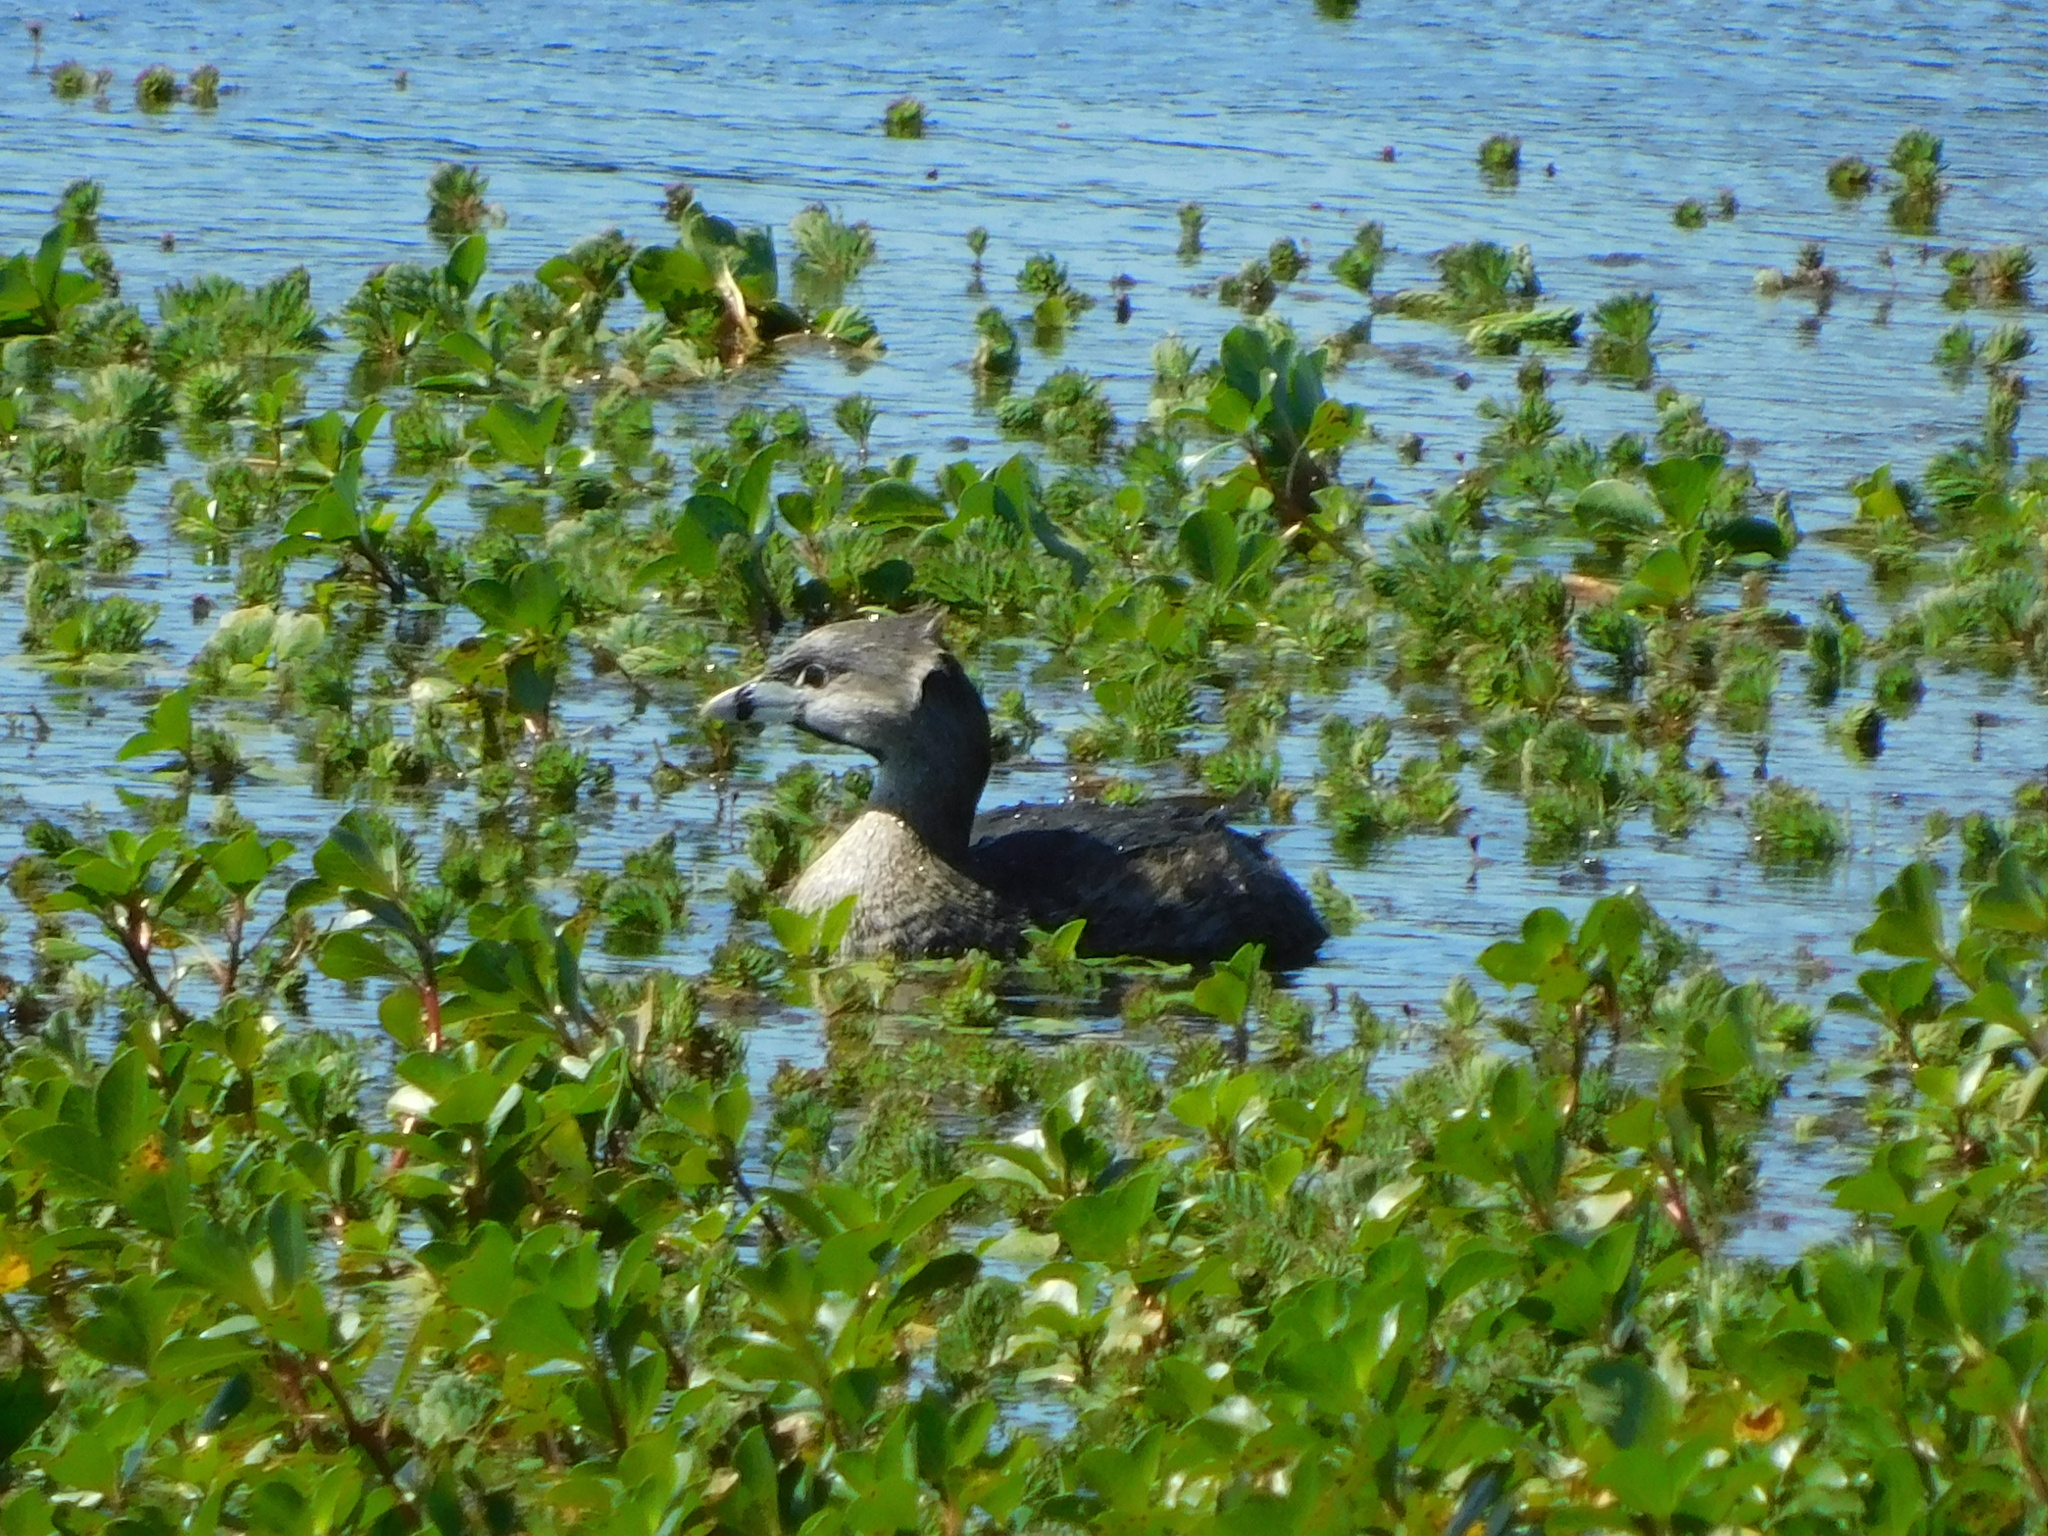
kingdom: Animalia
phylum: Chordata
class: Aves
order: Podicipediformes
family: Podicipedidae
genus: Podilymbus
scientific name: Podilymbus podiceps
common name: Pied-billed grebe
